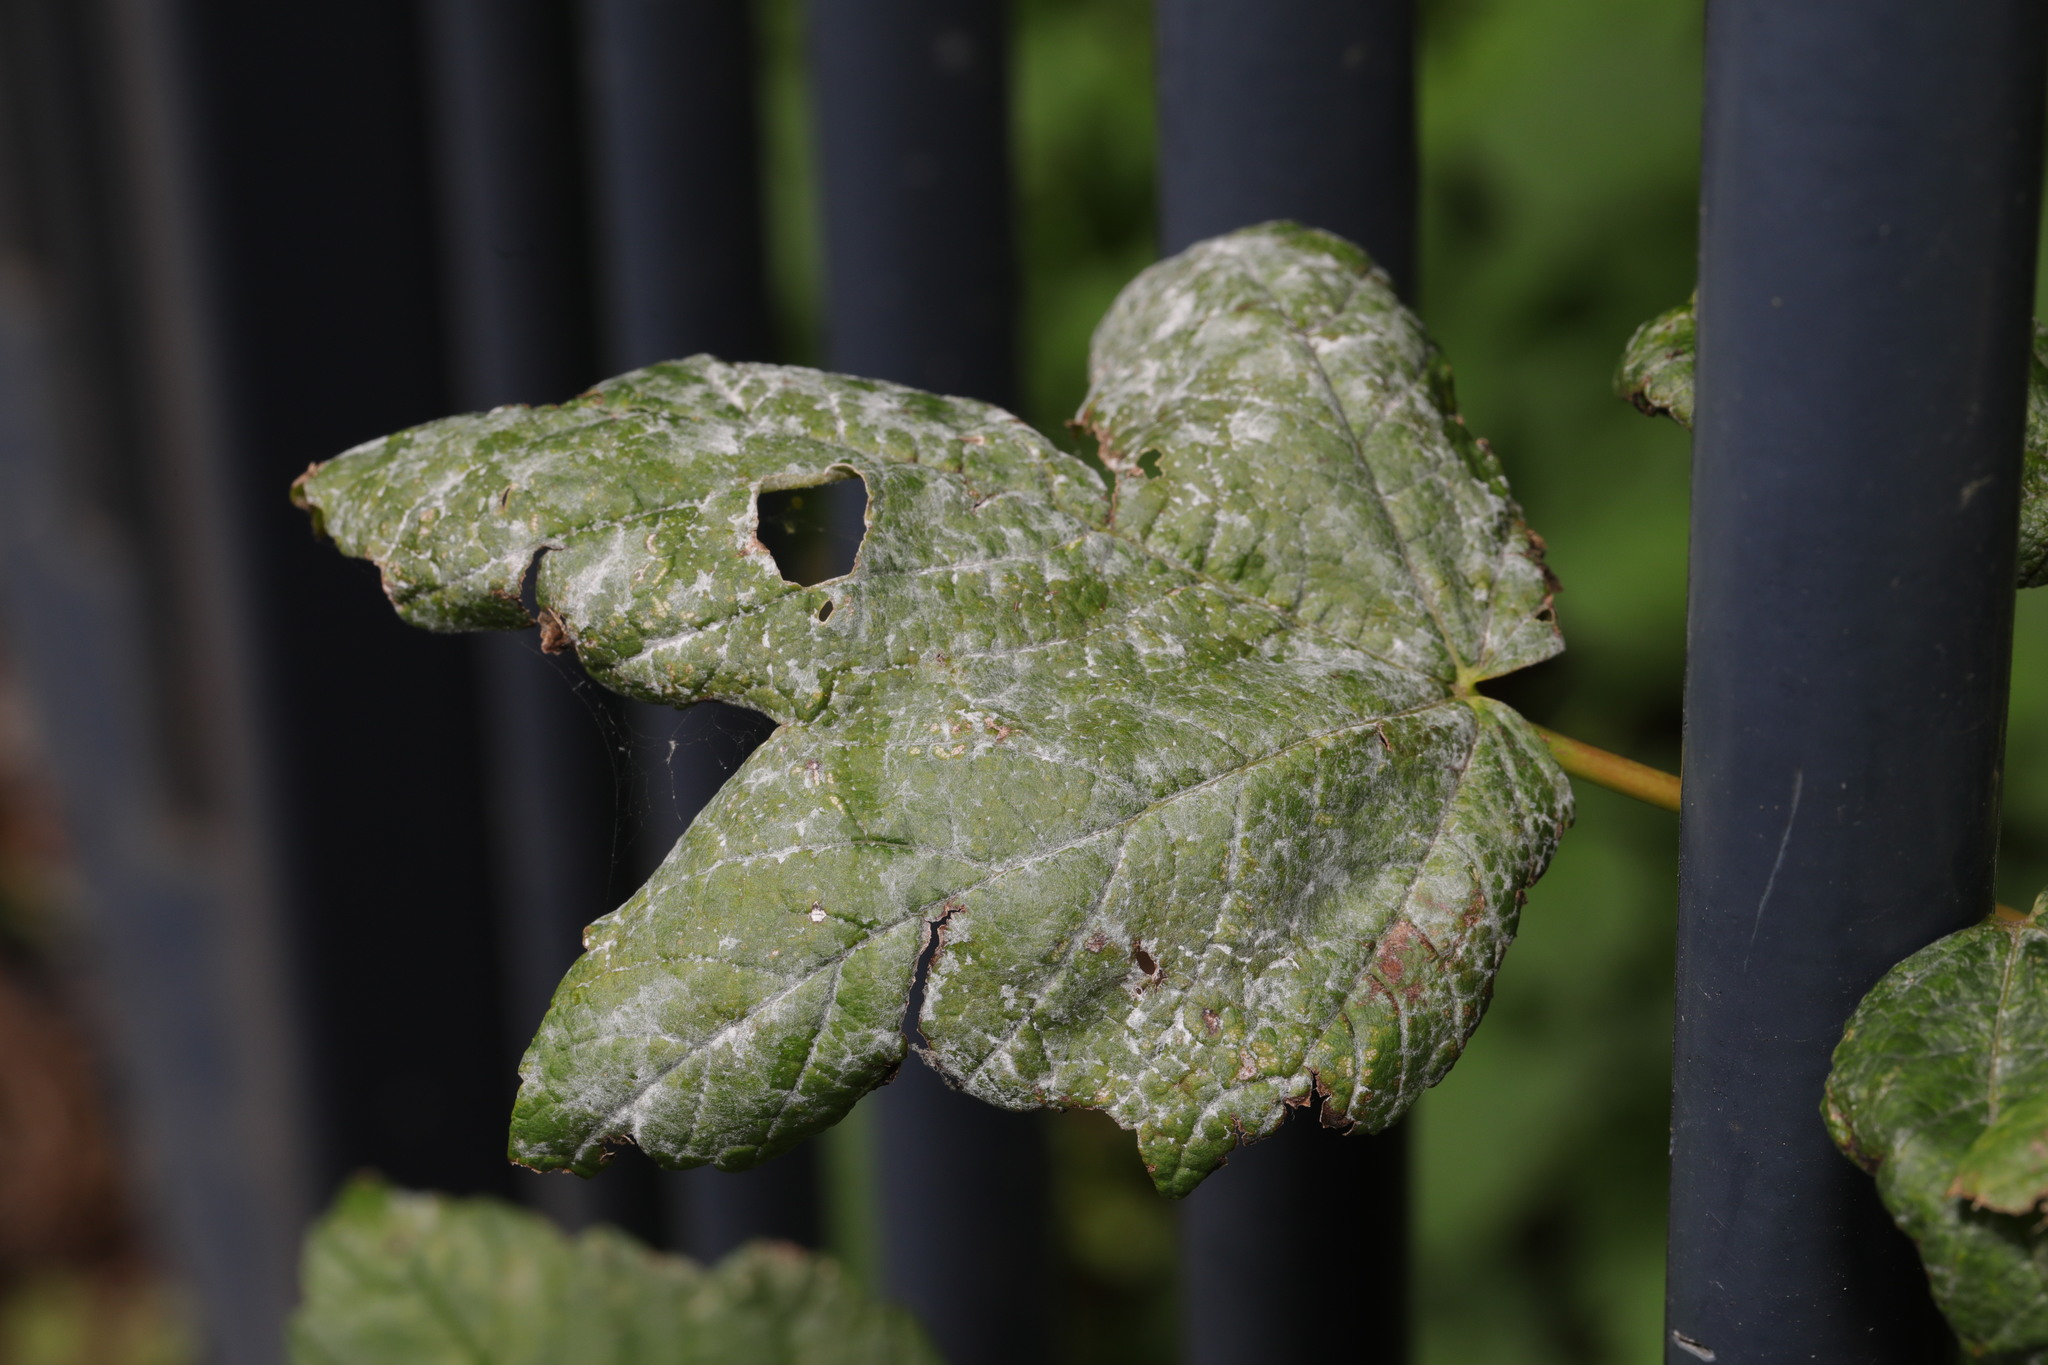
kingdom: Fungi
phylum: Ascomycota
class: Leotiomycetes
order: Helotiales
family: Erysiphaceae
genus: Sawadaea
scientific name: Sawadaea bicornis
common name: Maple mildew
